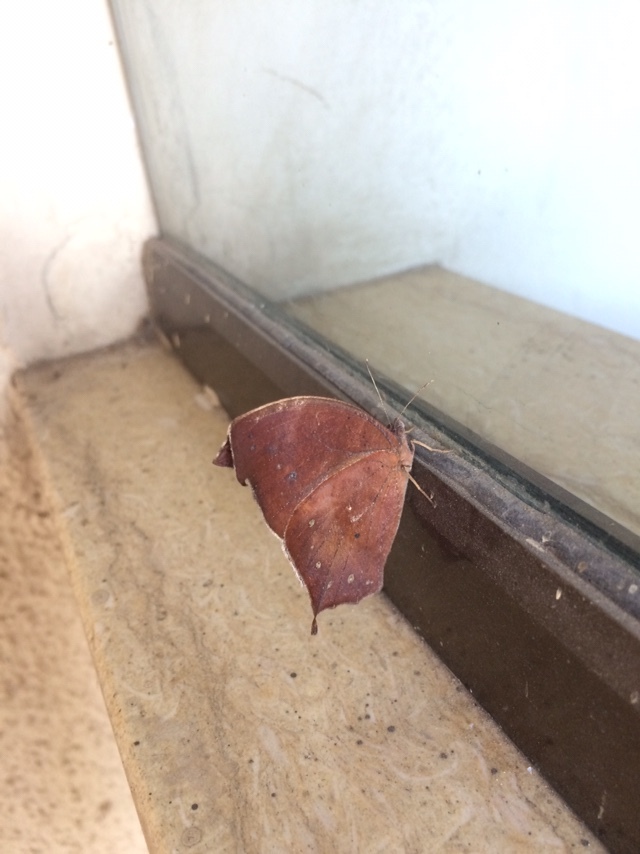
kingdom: Animalia
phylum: Arthropoda
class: Insecta
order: Lepidoptera
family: Nymphalidae
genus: Melanitis
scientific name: Melanitis phedima
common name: Dark evening brown
